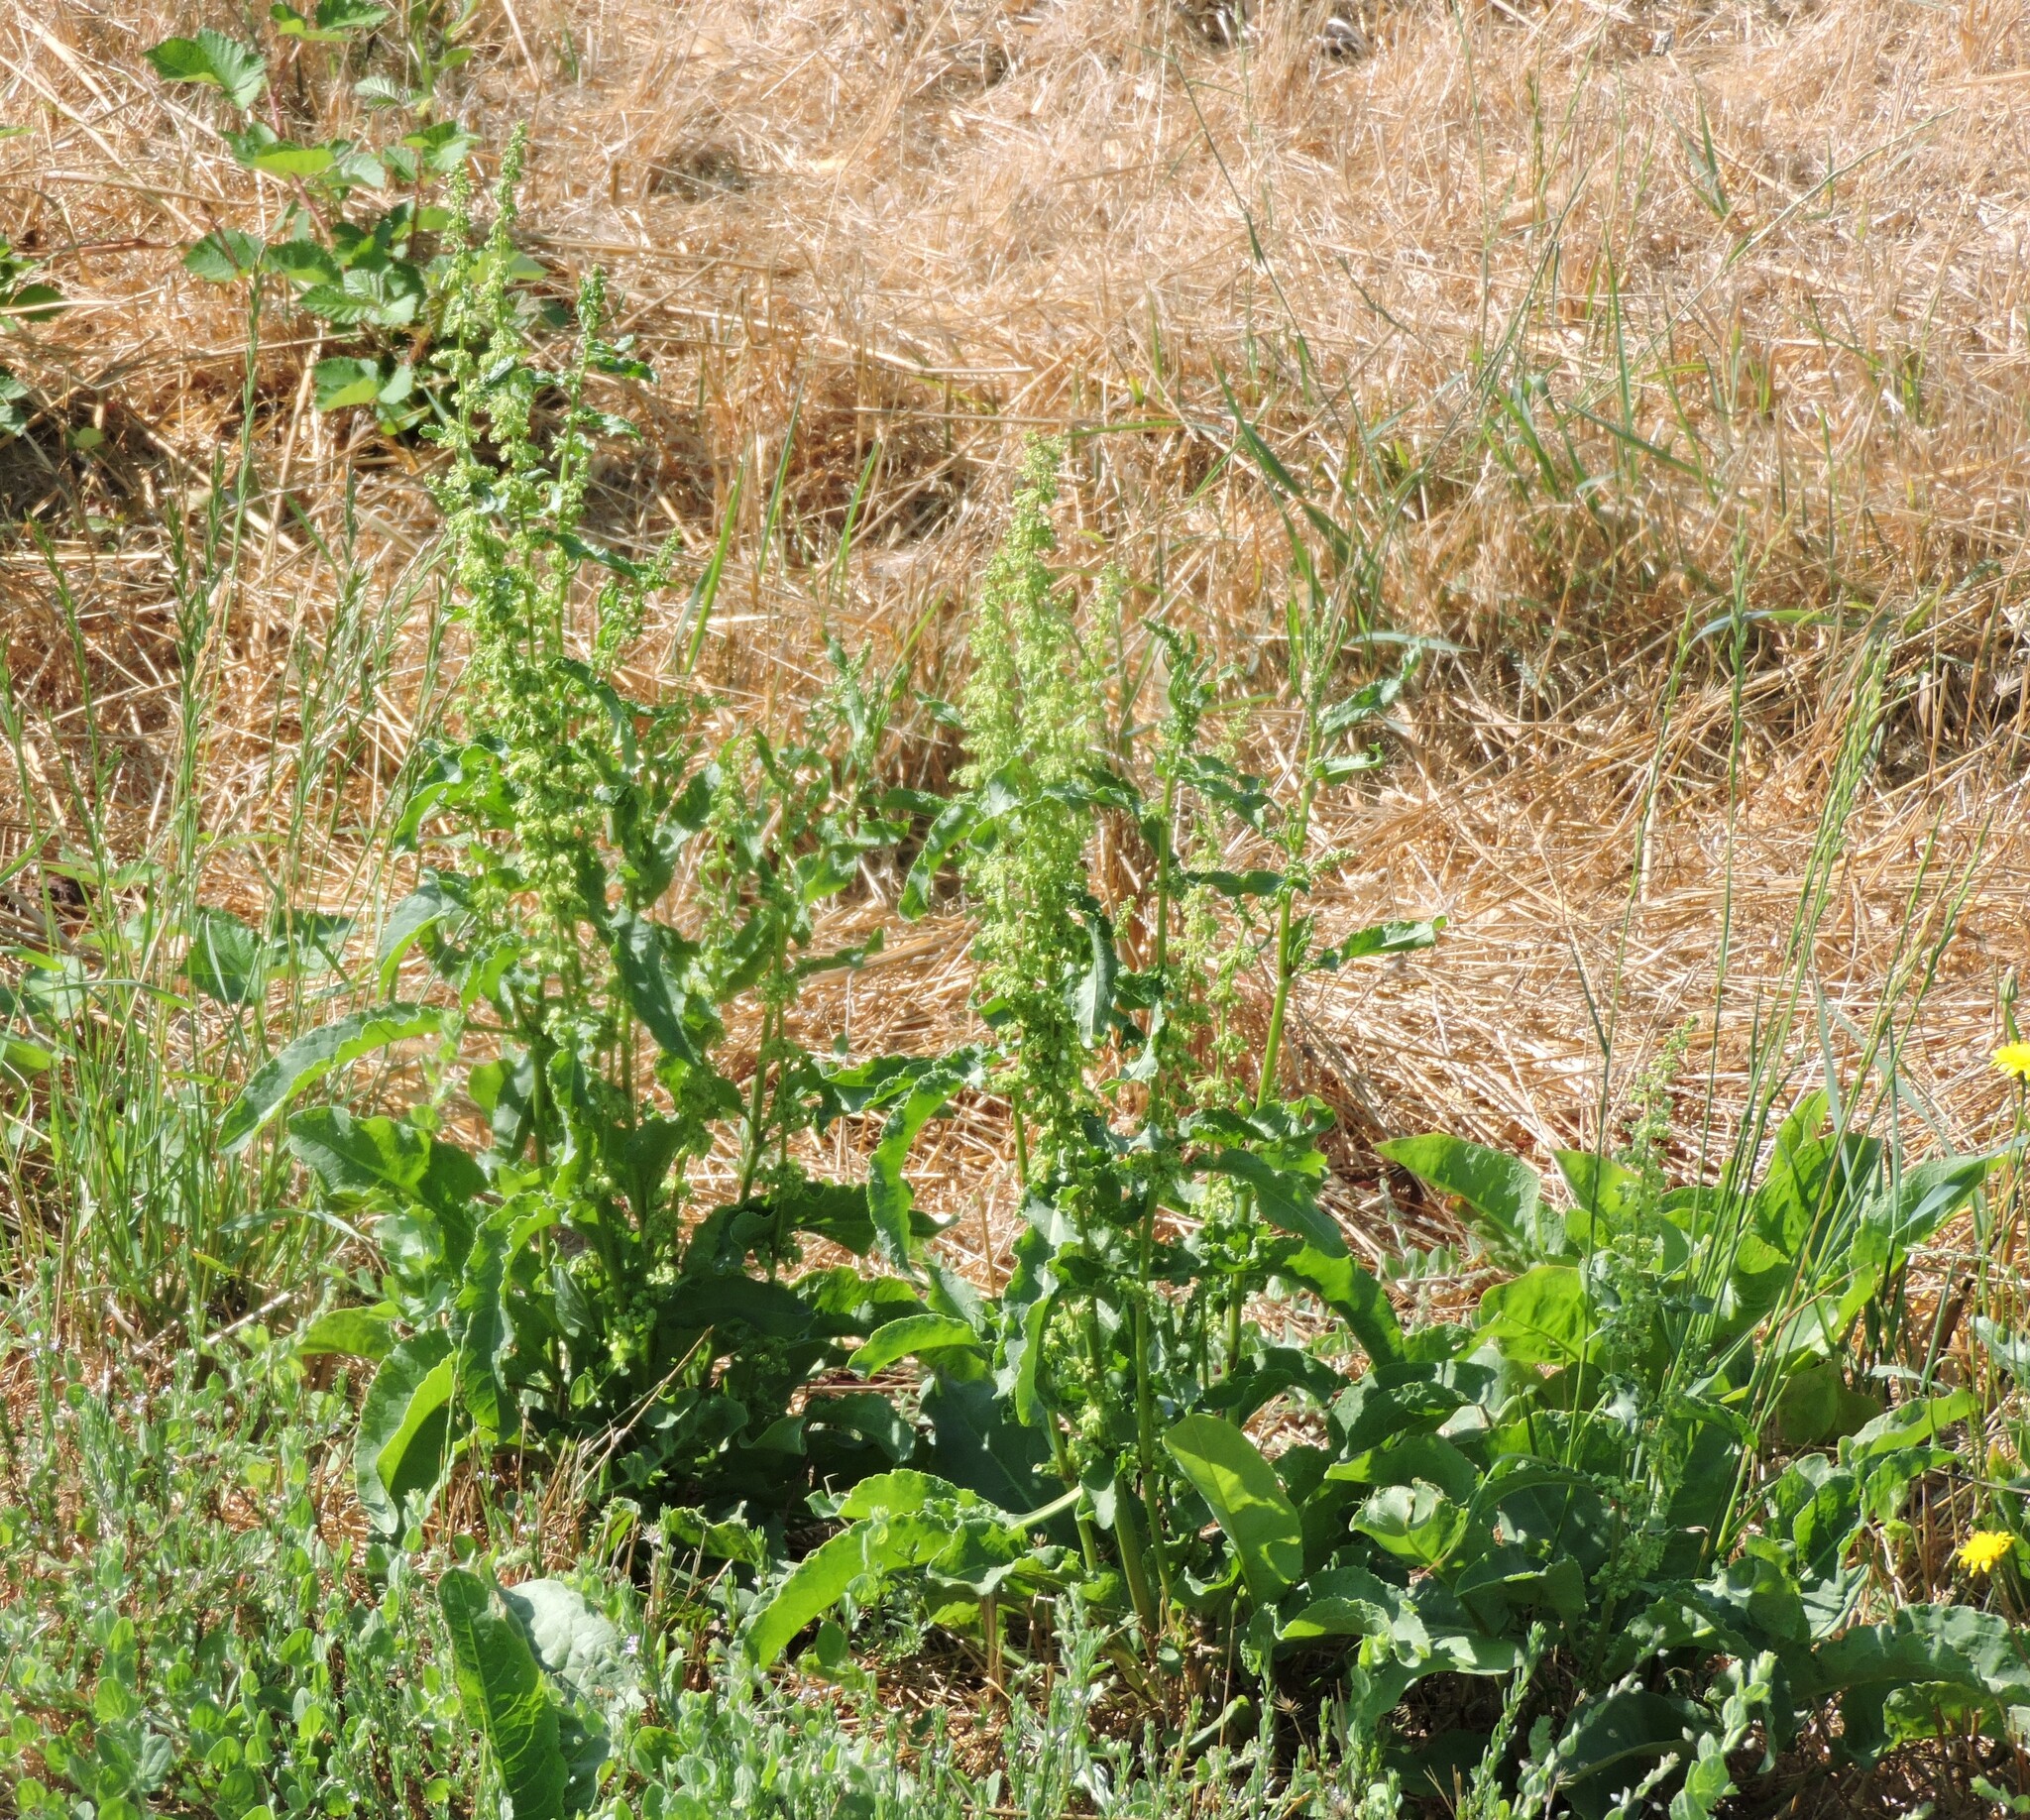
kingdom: Plantae
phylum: Tracheophyta
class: Magnoliopsida
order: Caryophyllales
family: Polygonaceae
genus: Rumex
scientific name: Rumex crispus
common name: Curled dock
